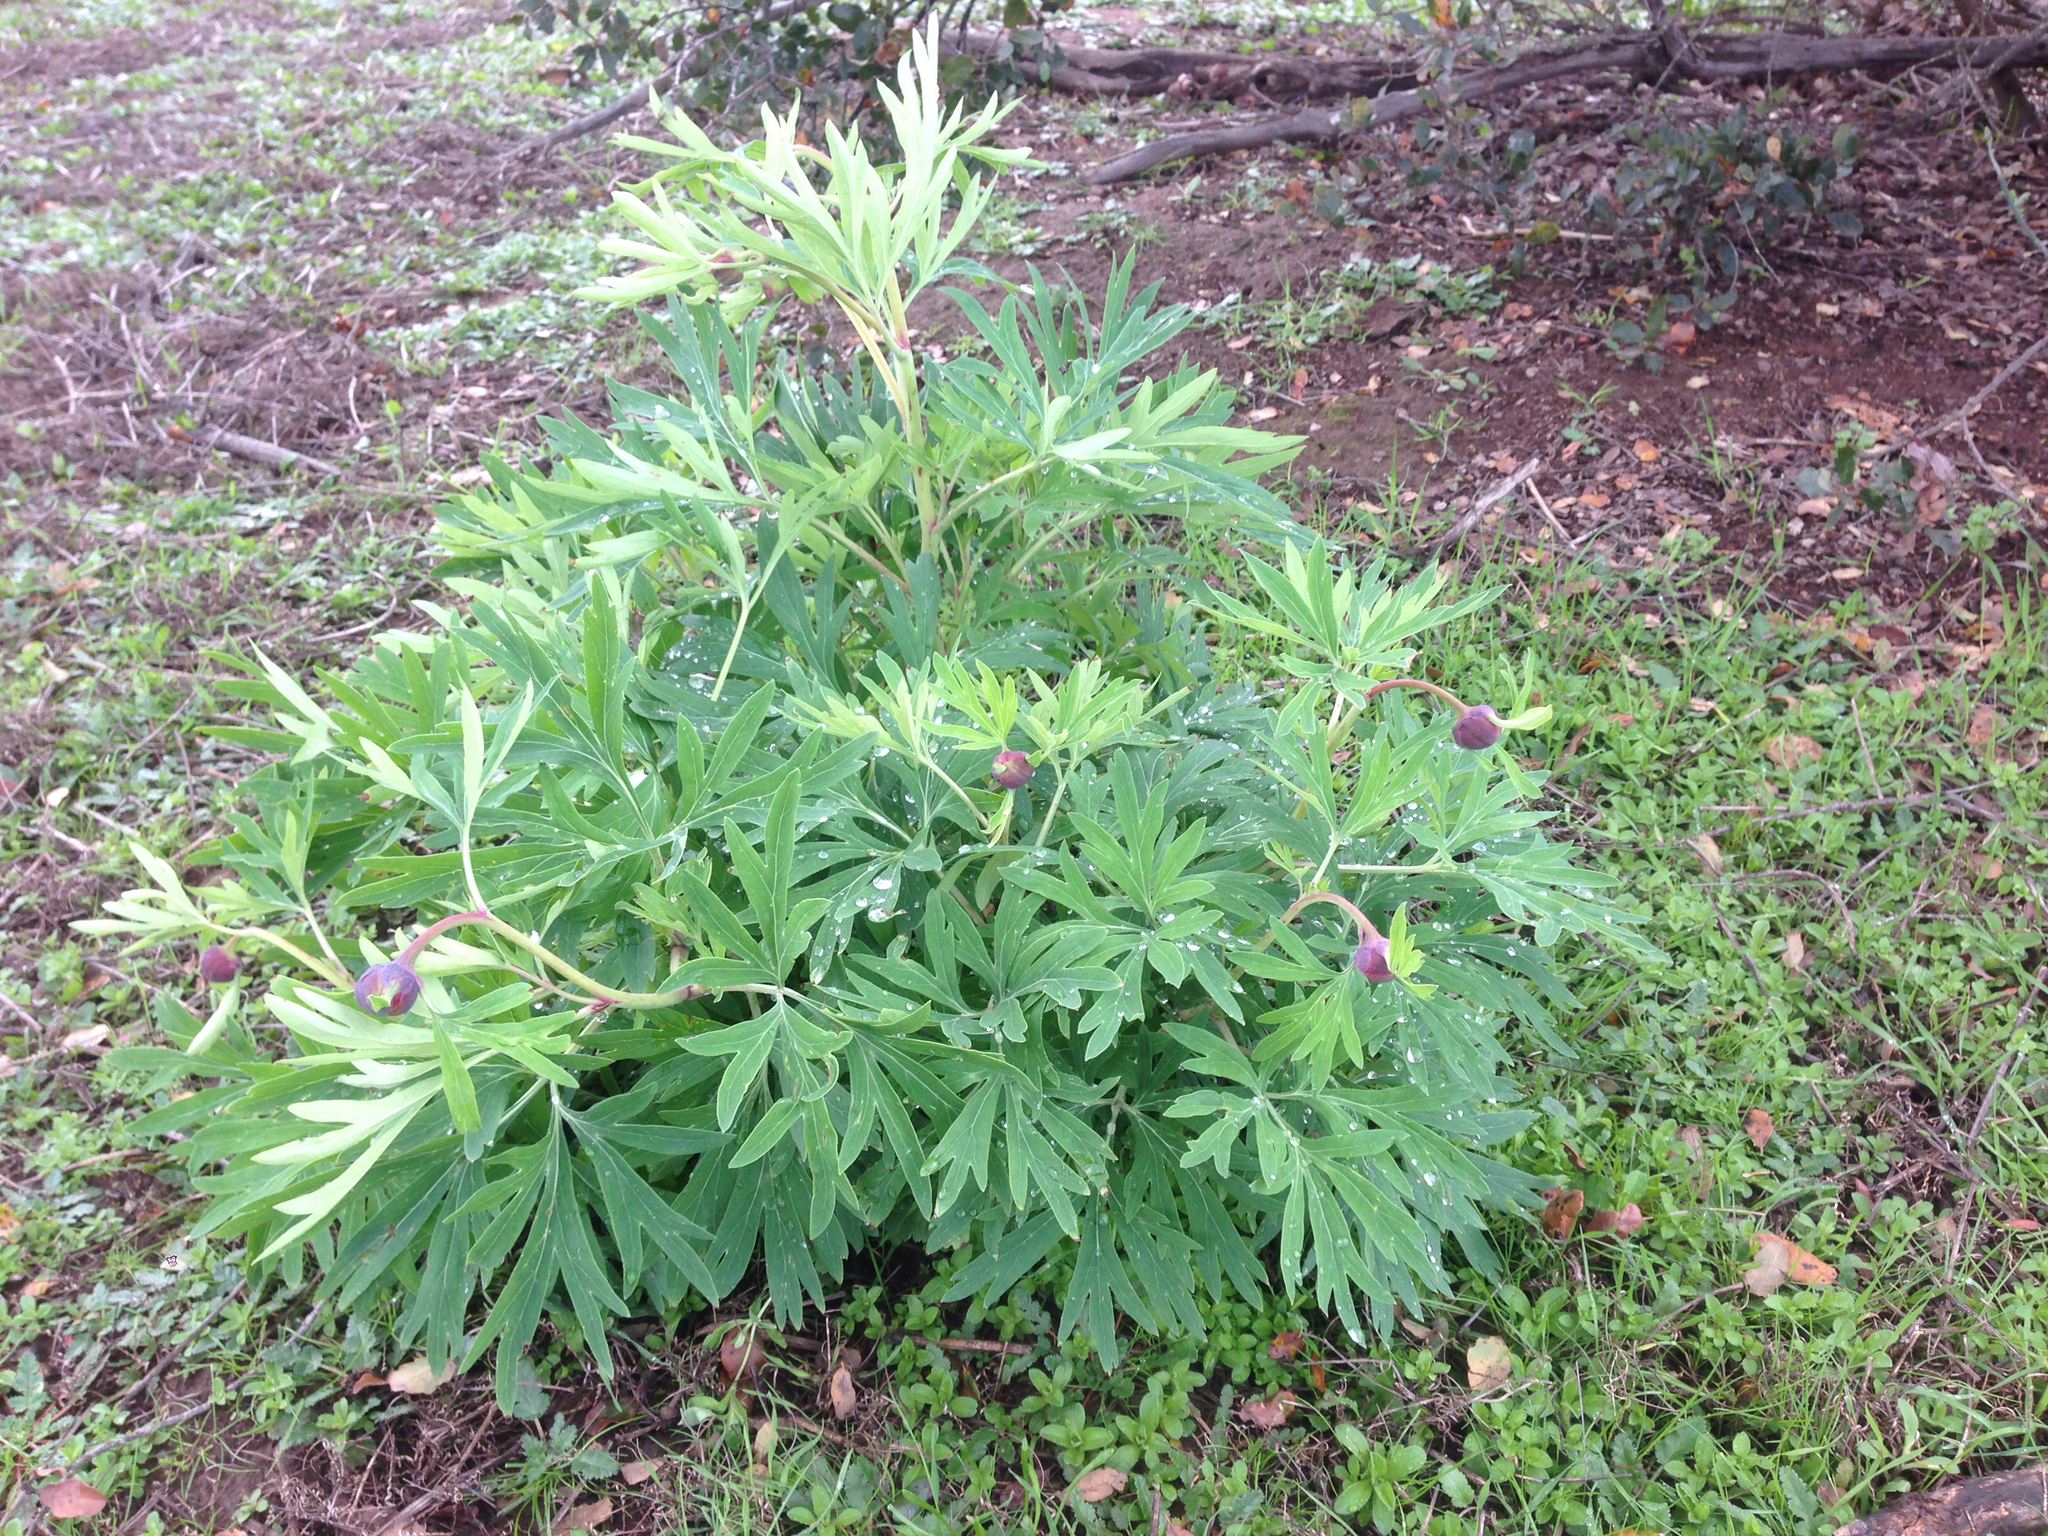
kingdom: Plantae
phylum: Tracheophyta
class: Magnoliopsida
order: Saxifragales
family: Paeoniaceae
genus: Paeonia
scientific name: Paeonia californica
